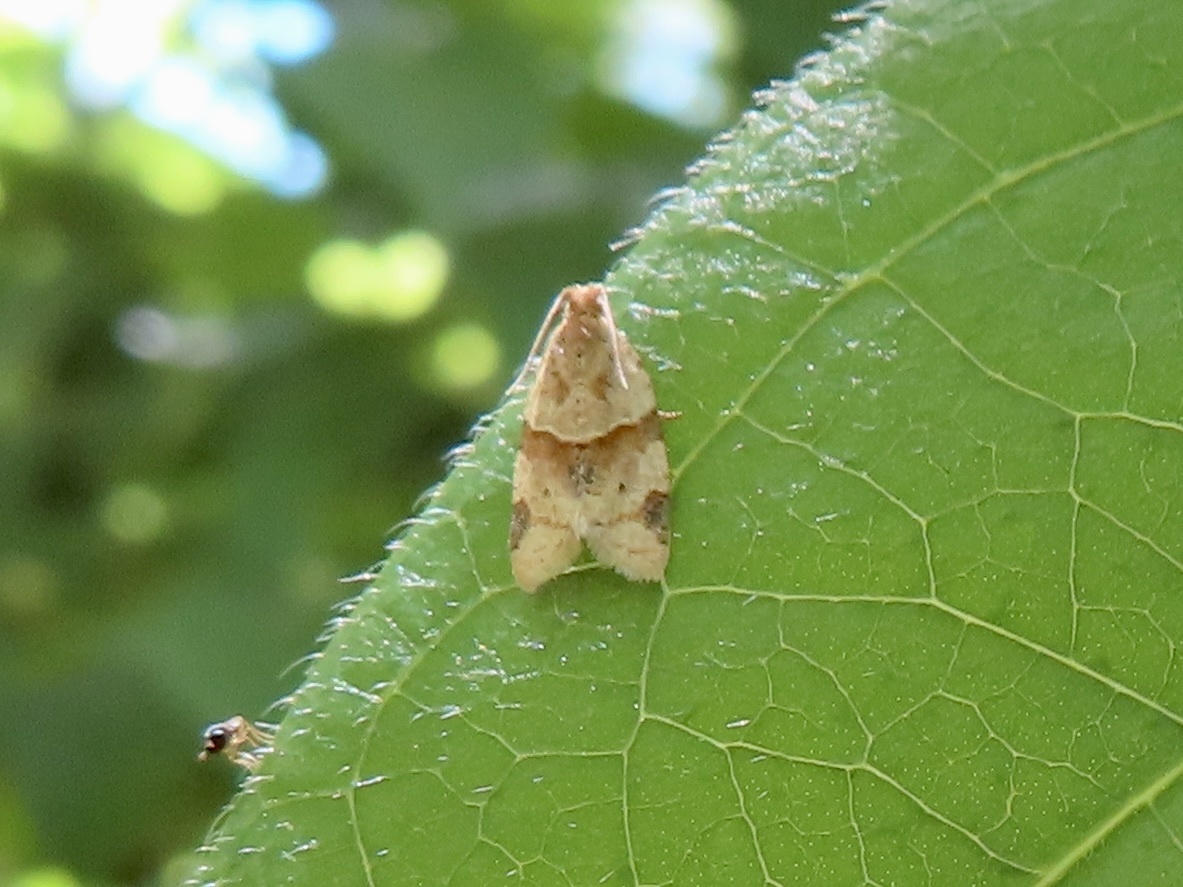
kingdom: Animalia
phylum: Arthropoda
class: Insecta
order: Lepidoptera
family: Tortricidae
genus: Clepsis
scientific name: Clepsis peritana
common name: Garden tortrix
